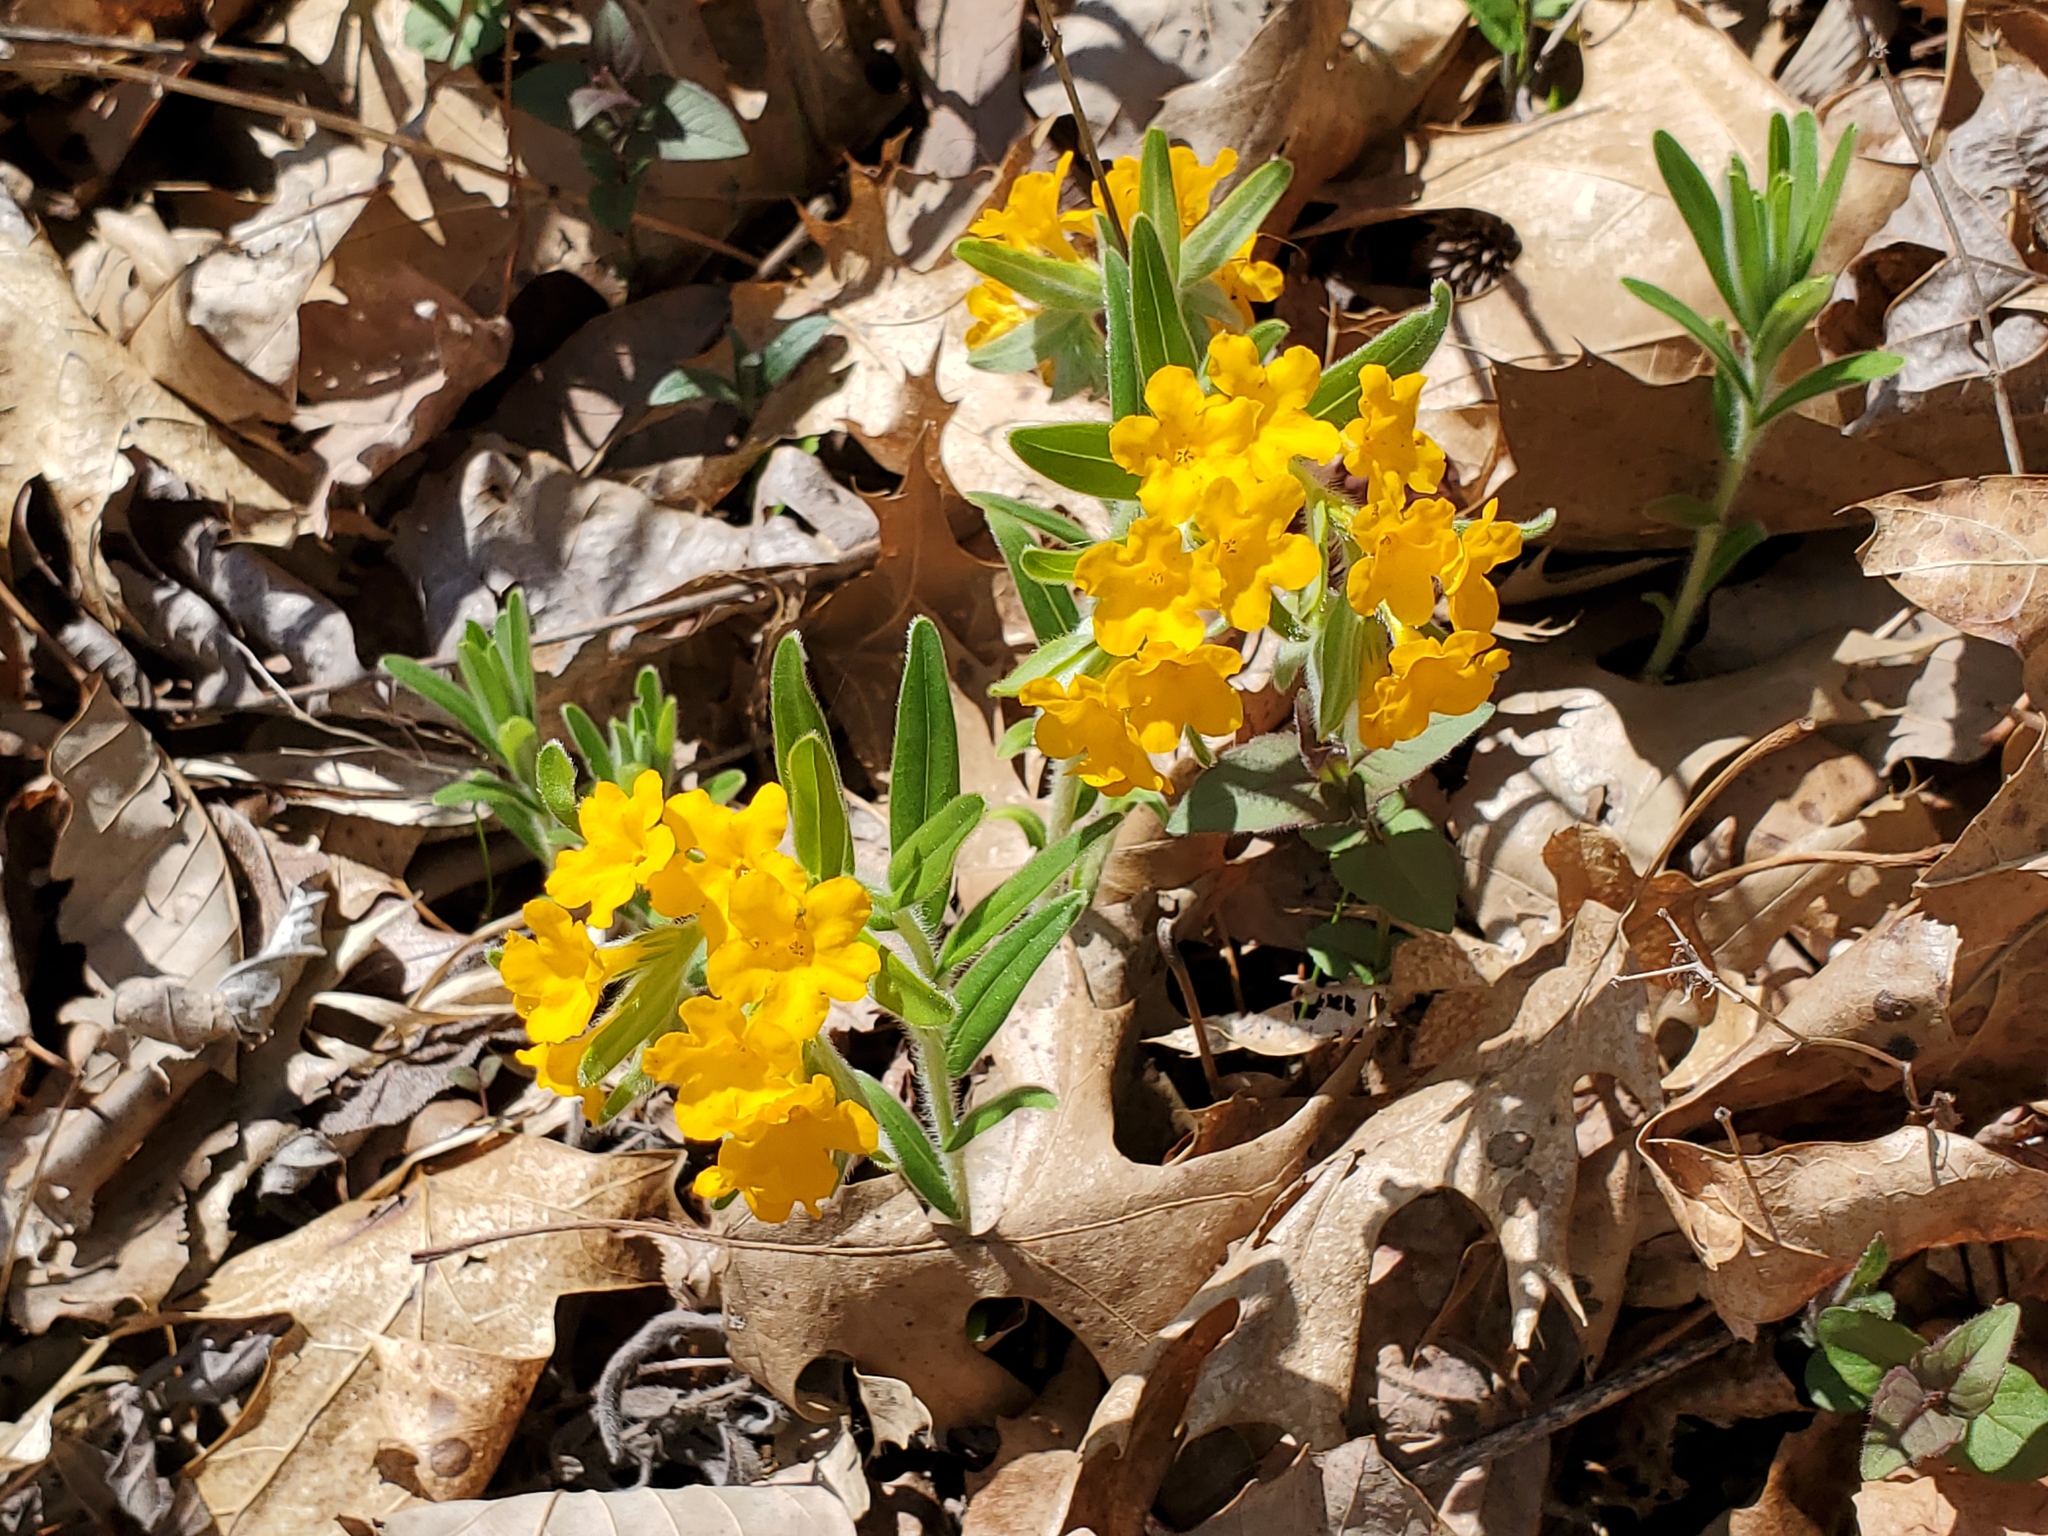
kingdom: Plantae
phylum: Tracheophyta
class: Magnoliopsida
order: Boraginales
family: Boraginaceae
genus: Lithospermum
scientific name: Lithospermum canescens
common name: Hoary puccoon
